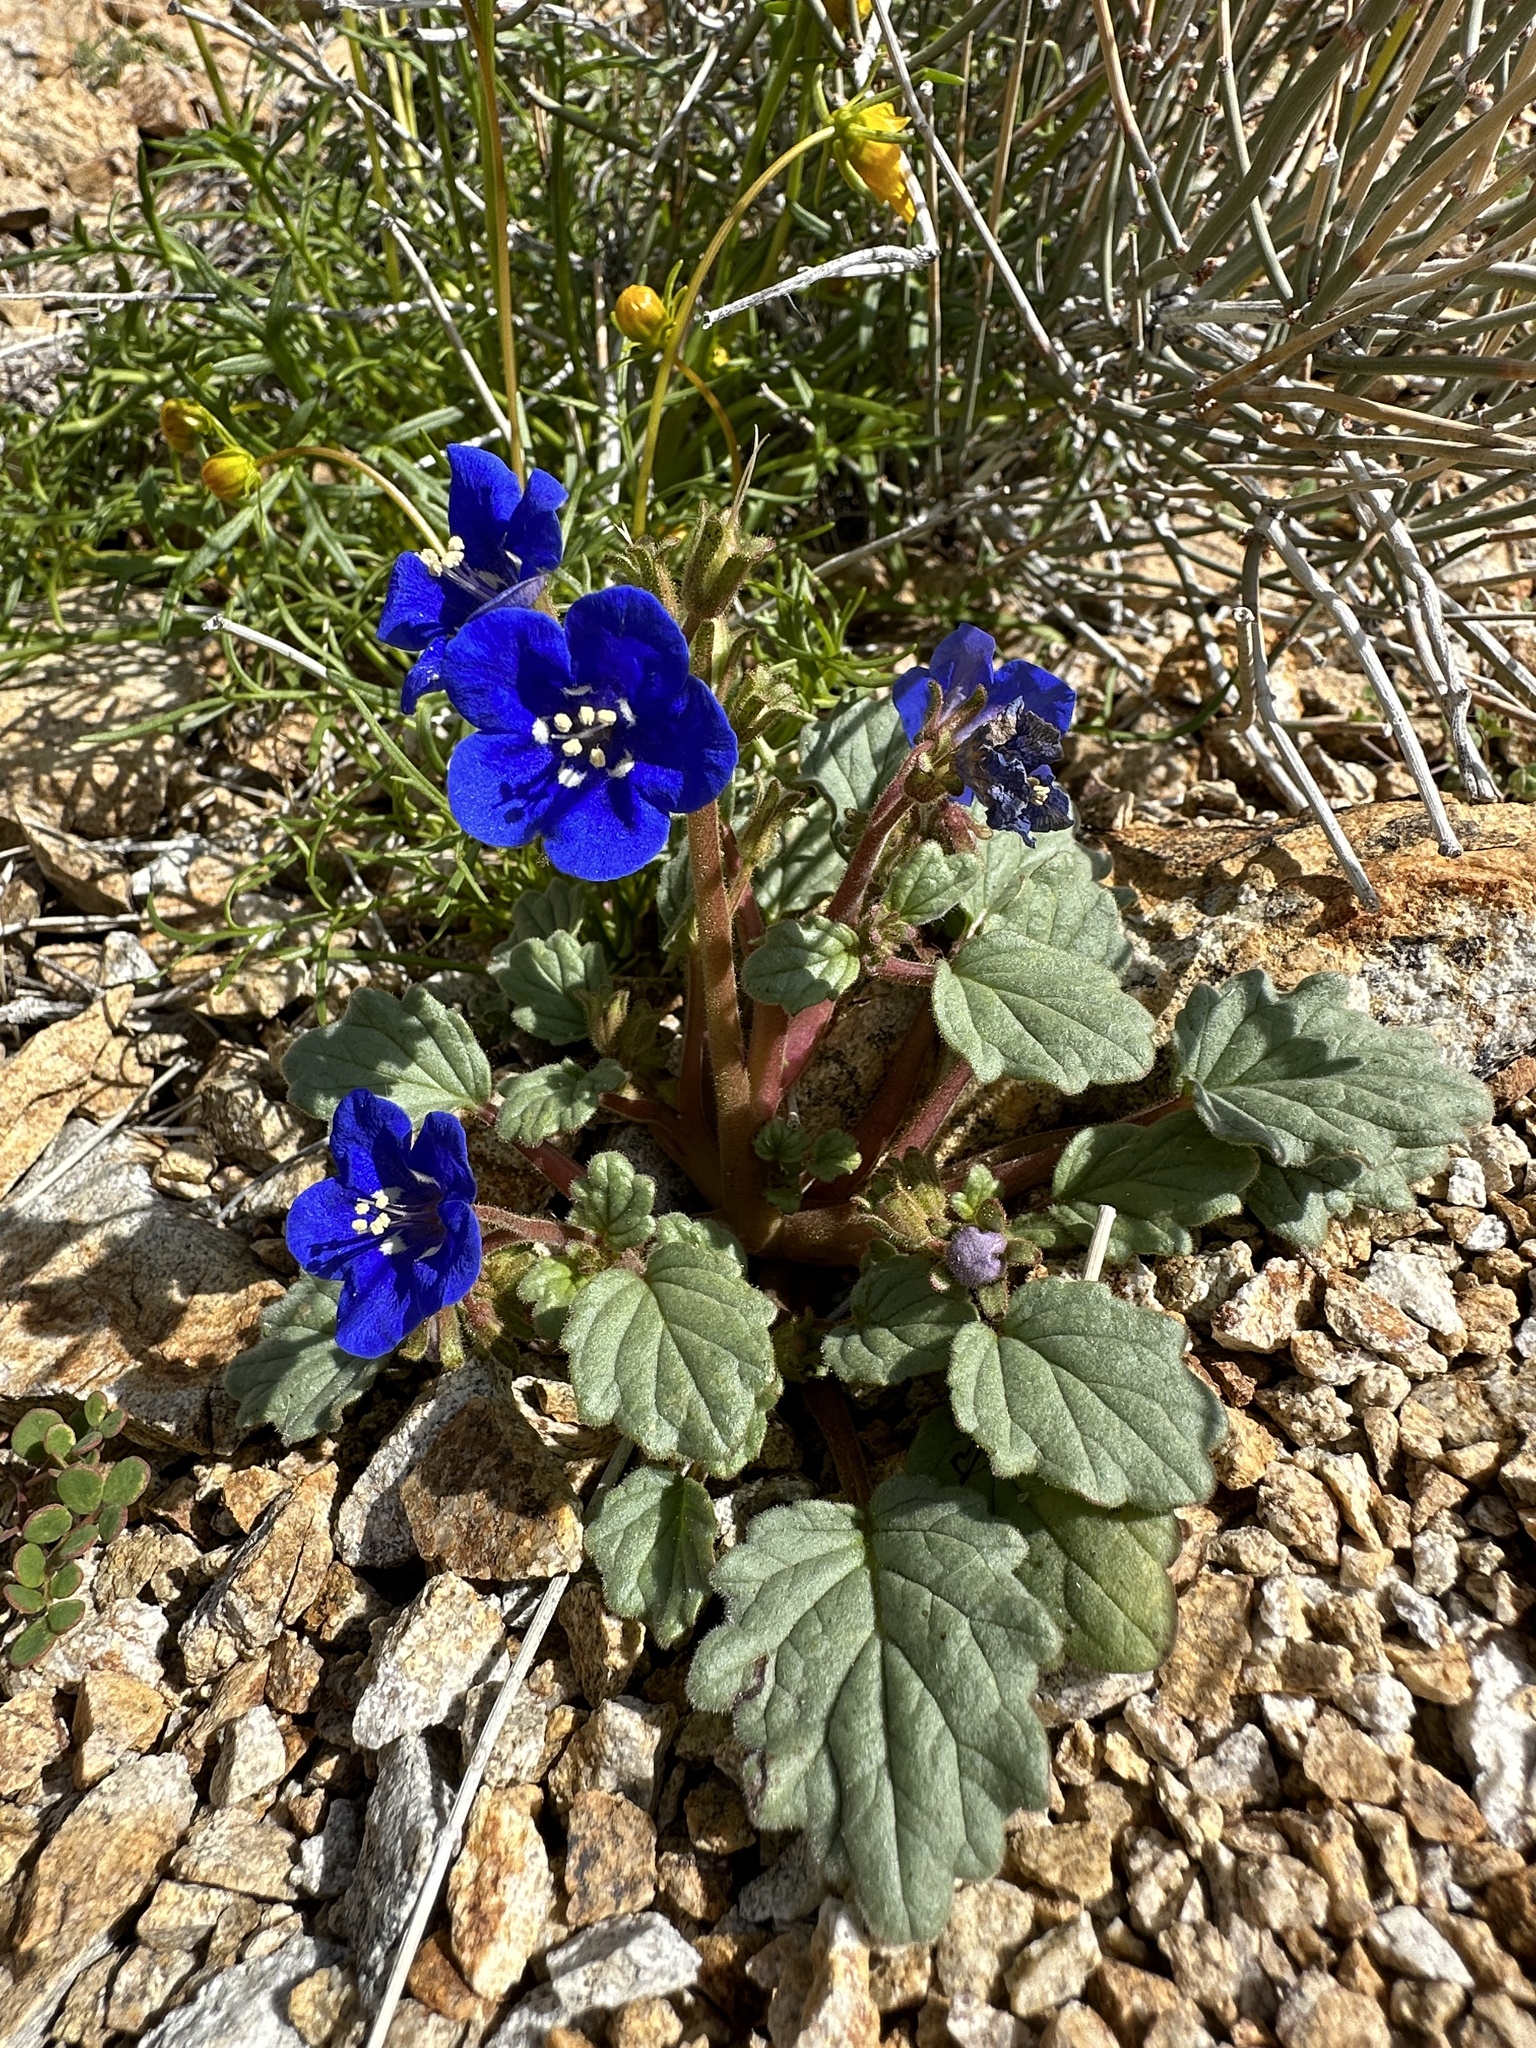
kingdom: Plantae
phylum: Tracheophyta
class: Magnoliopsida
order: Boraginales
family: Hydrophyllaceae
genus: Phacelia
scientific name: Phacelia nashiana
